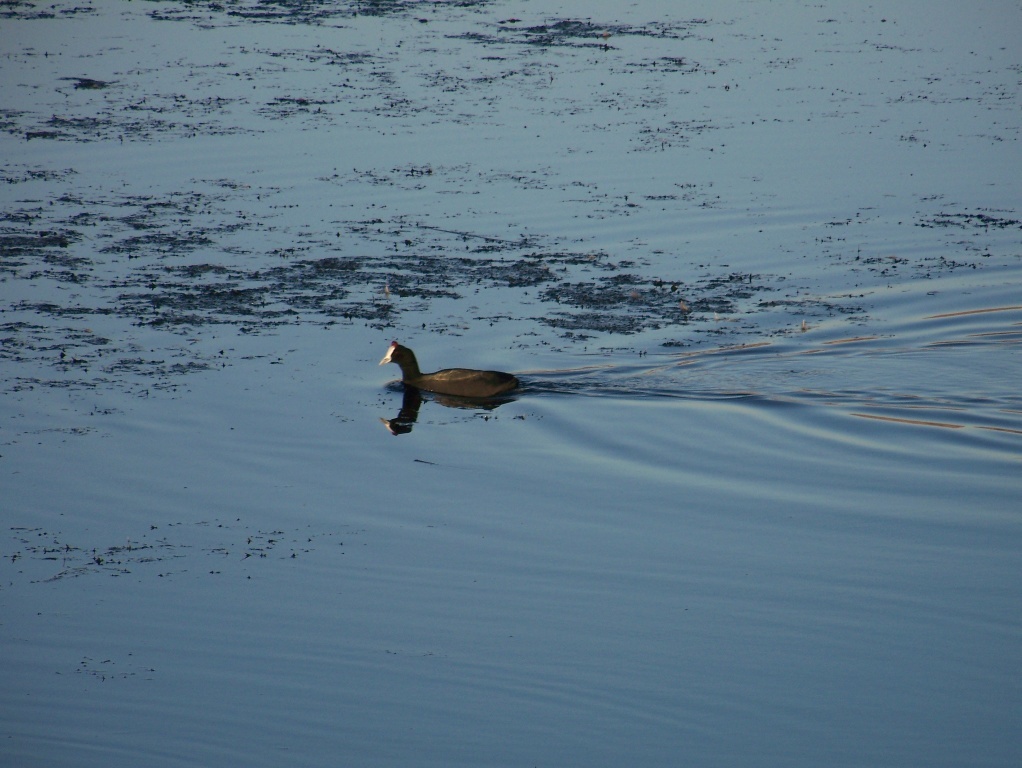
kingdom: Animalia
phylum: Chordata
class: Aves
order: Gruiformes
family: Rallidae
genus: Fulica
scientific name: Fulica cristata
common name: Red-knobbed coot
